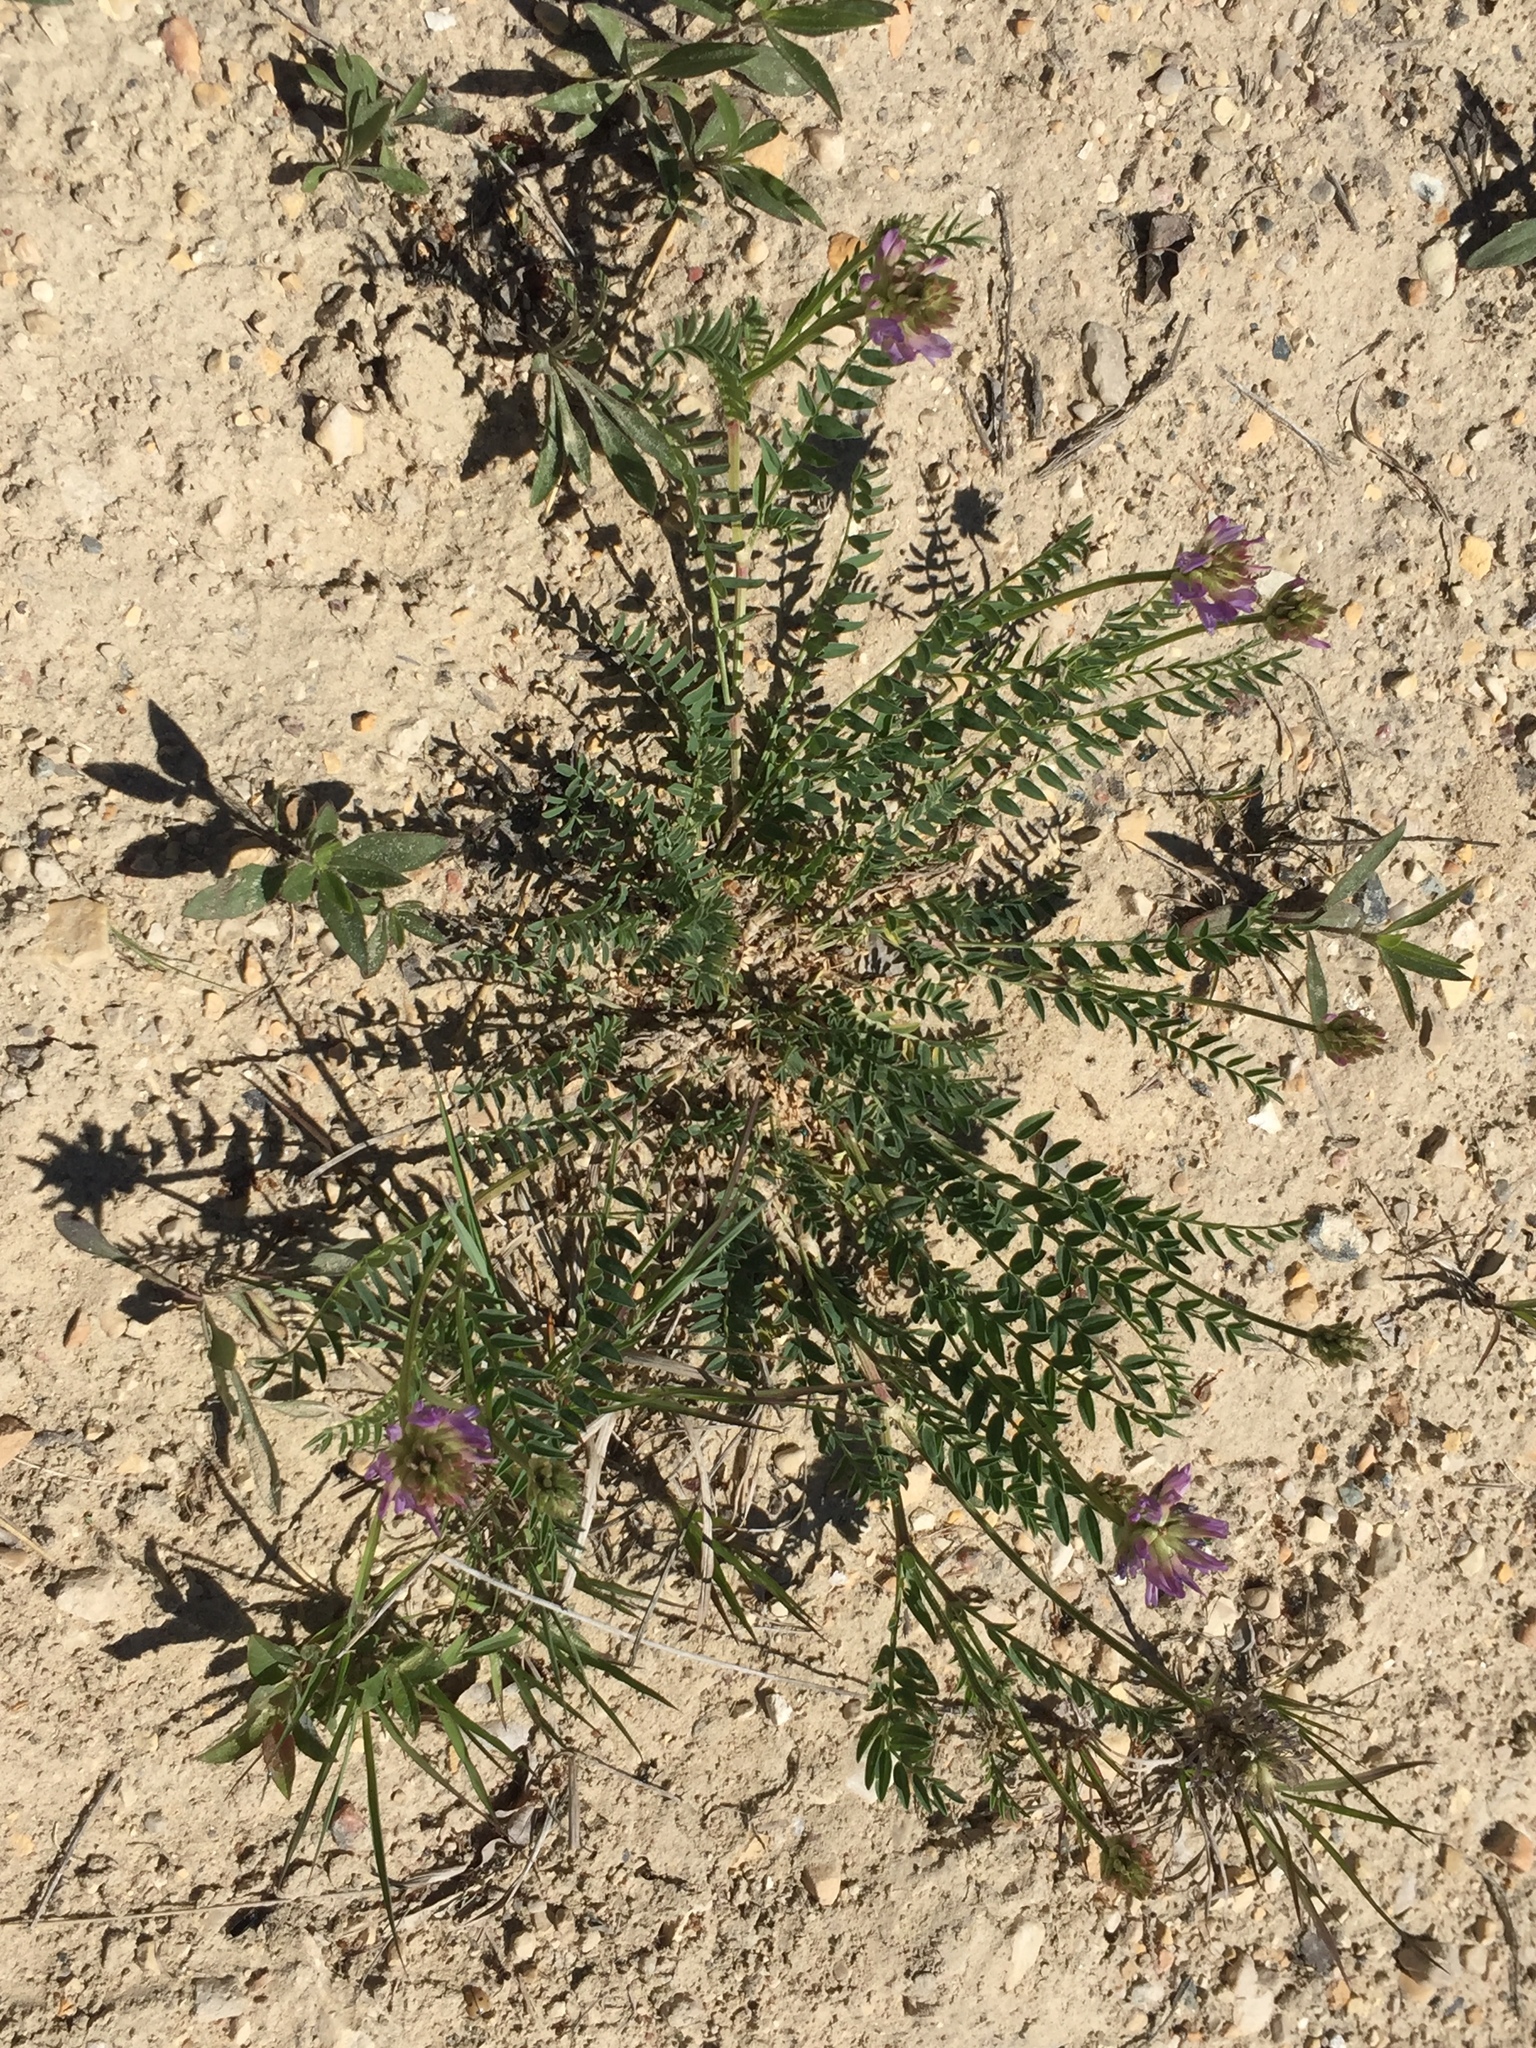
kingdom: Plantae
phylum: Tracheophyta
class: Magnoliopsida
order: Fabales
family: Fabaceae
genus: Astragalus
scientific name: Astragalus laxmannii
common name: Laxmann's milk-vetch
